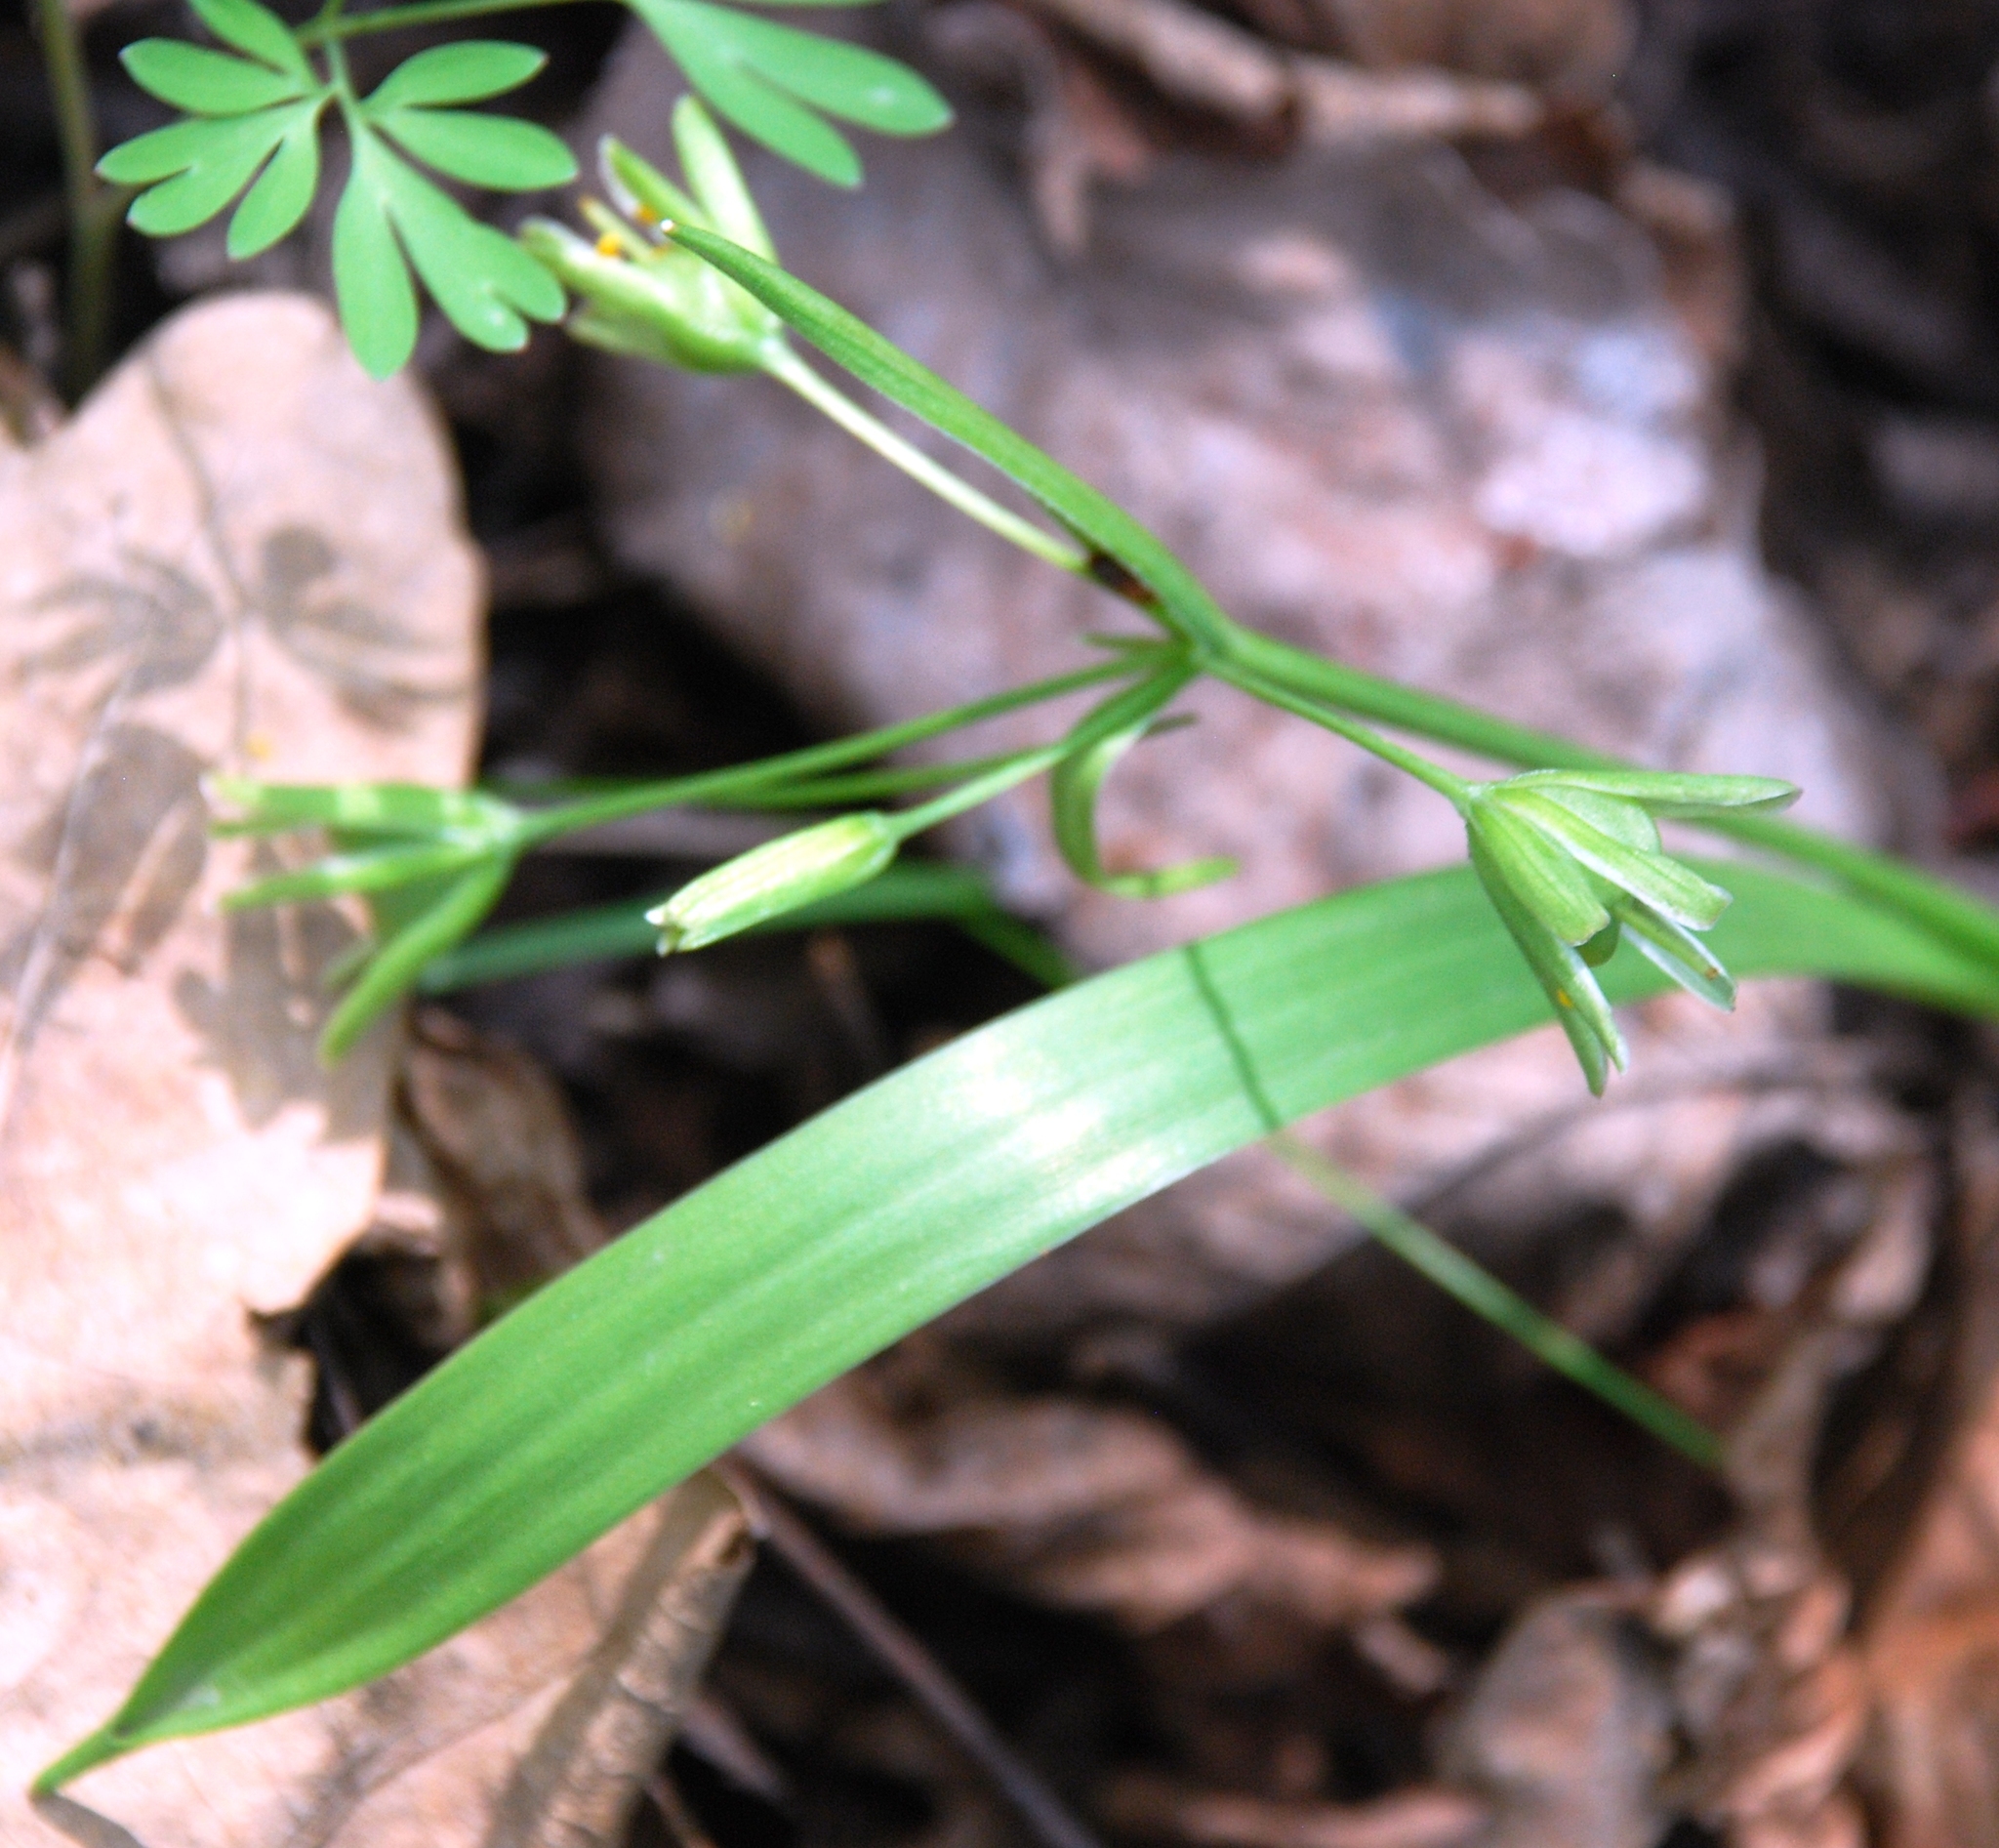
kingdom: Plantae
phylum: Tracheophyta
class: Liliopsida
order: Liliales
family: Liliaceae
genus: Gagea
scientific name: Gagea lutea
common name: Yellow star-of-bethlehem
